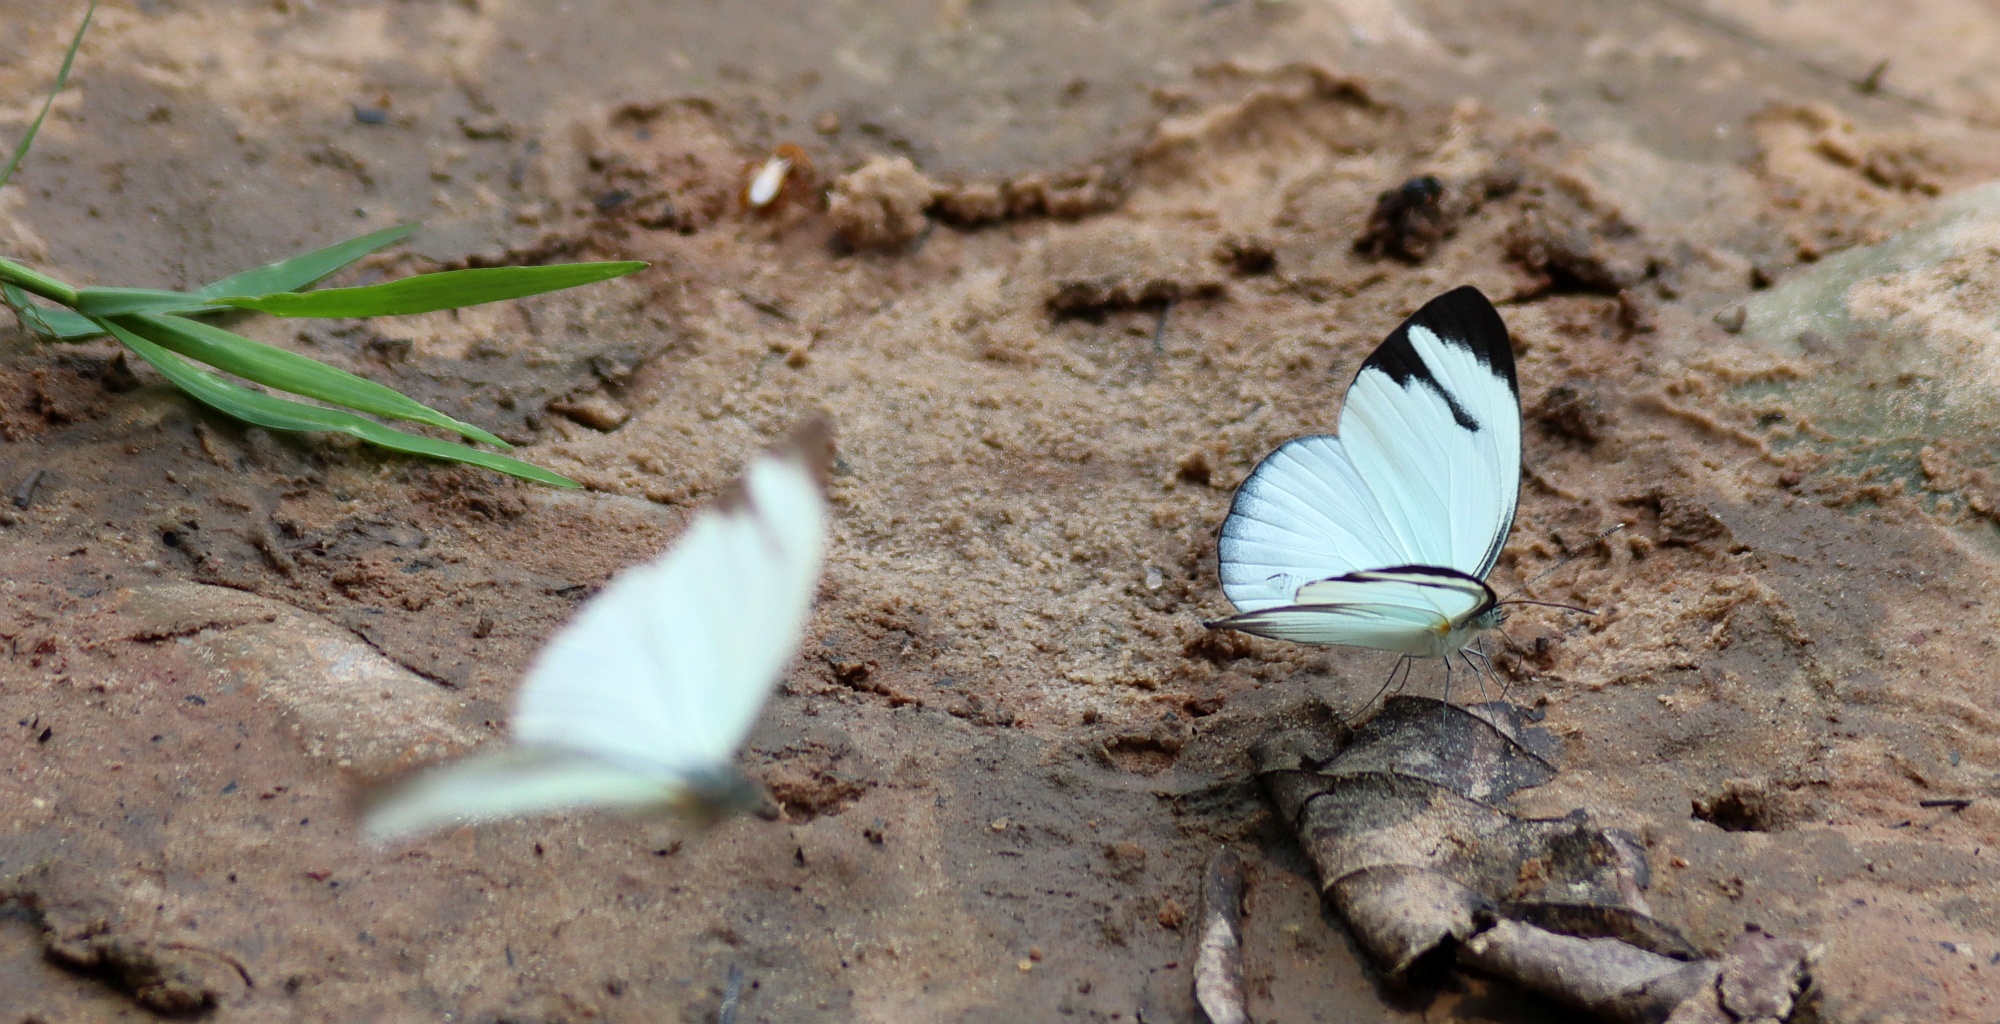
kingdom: Animalia
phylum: Arthropoda
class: Insecta
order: Lepidoptera
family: Pieridae
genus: Itaballia
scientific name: Itaballia demophile
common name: Cross-barred white
